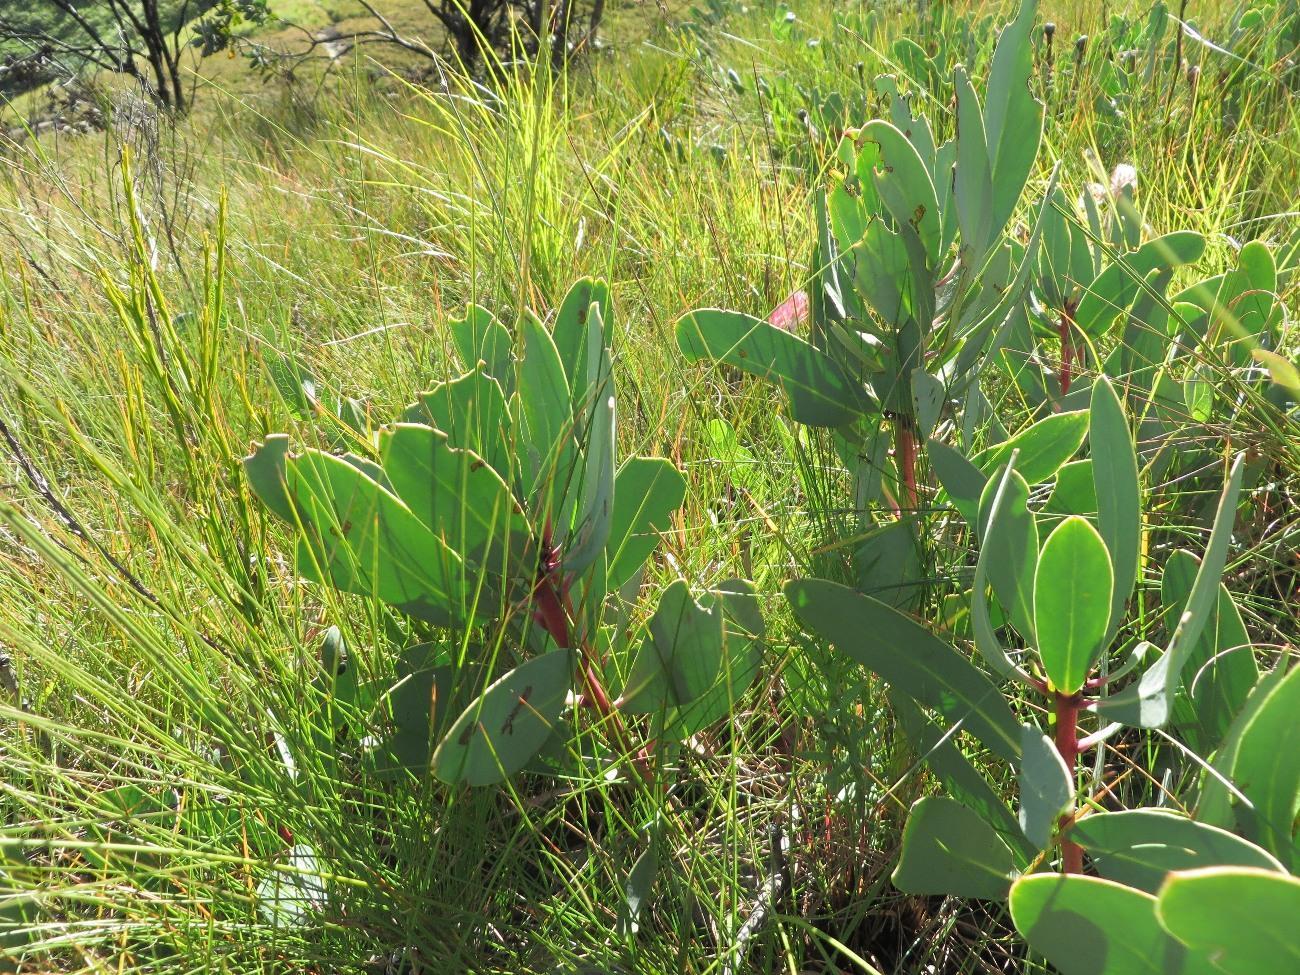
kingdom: Plantae
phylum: Tracheophyta
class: Magnoliopsida
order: Proteales
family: Proteaceae
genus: Protea
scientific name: Protea dracomontana
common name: Drakensberg dwarf sugarbush
